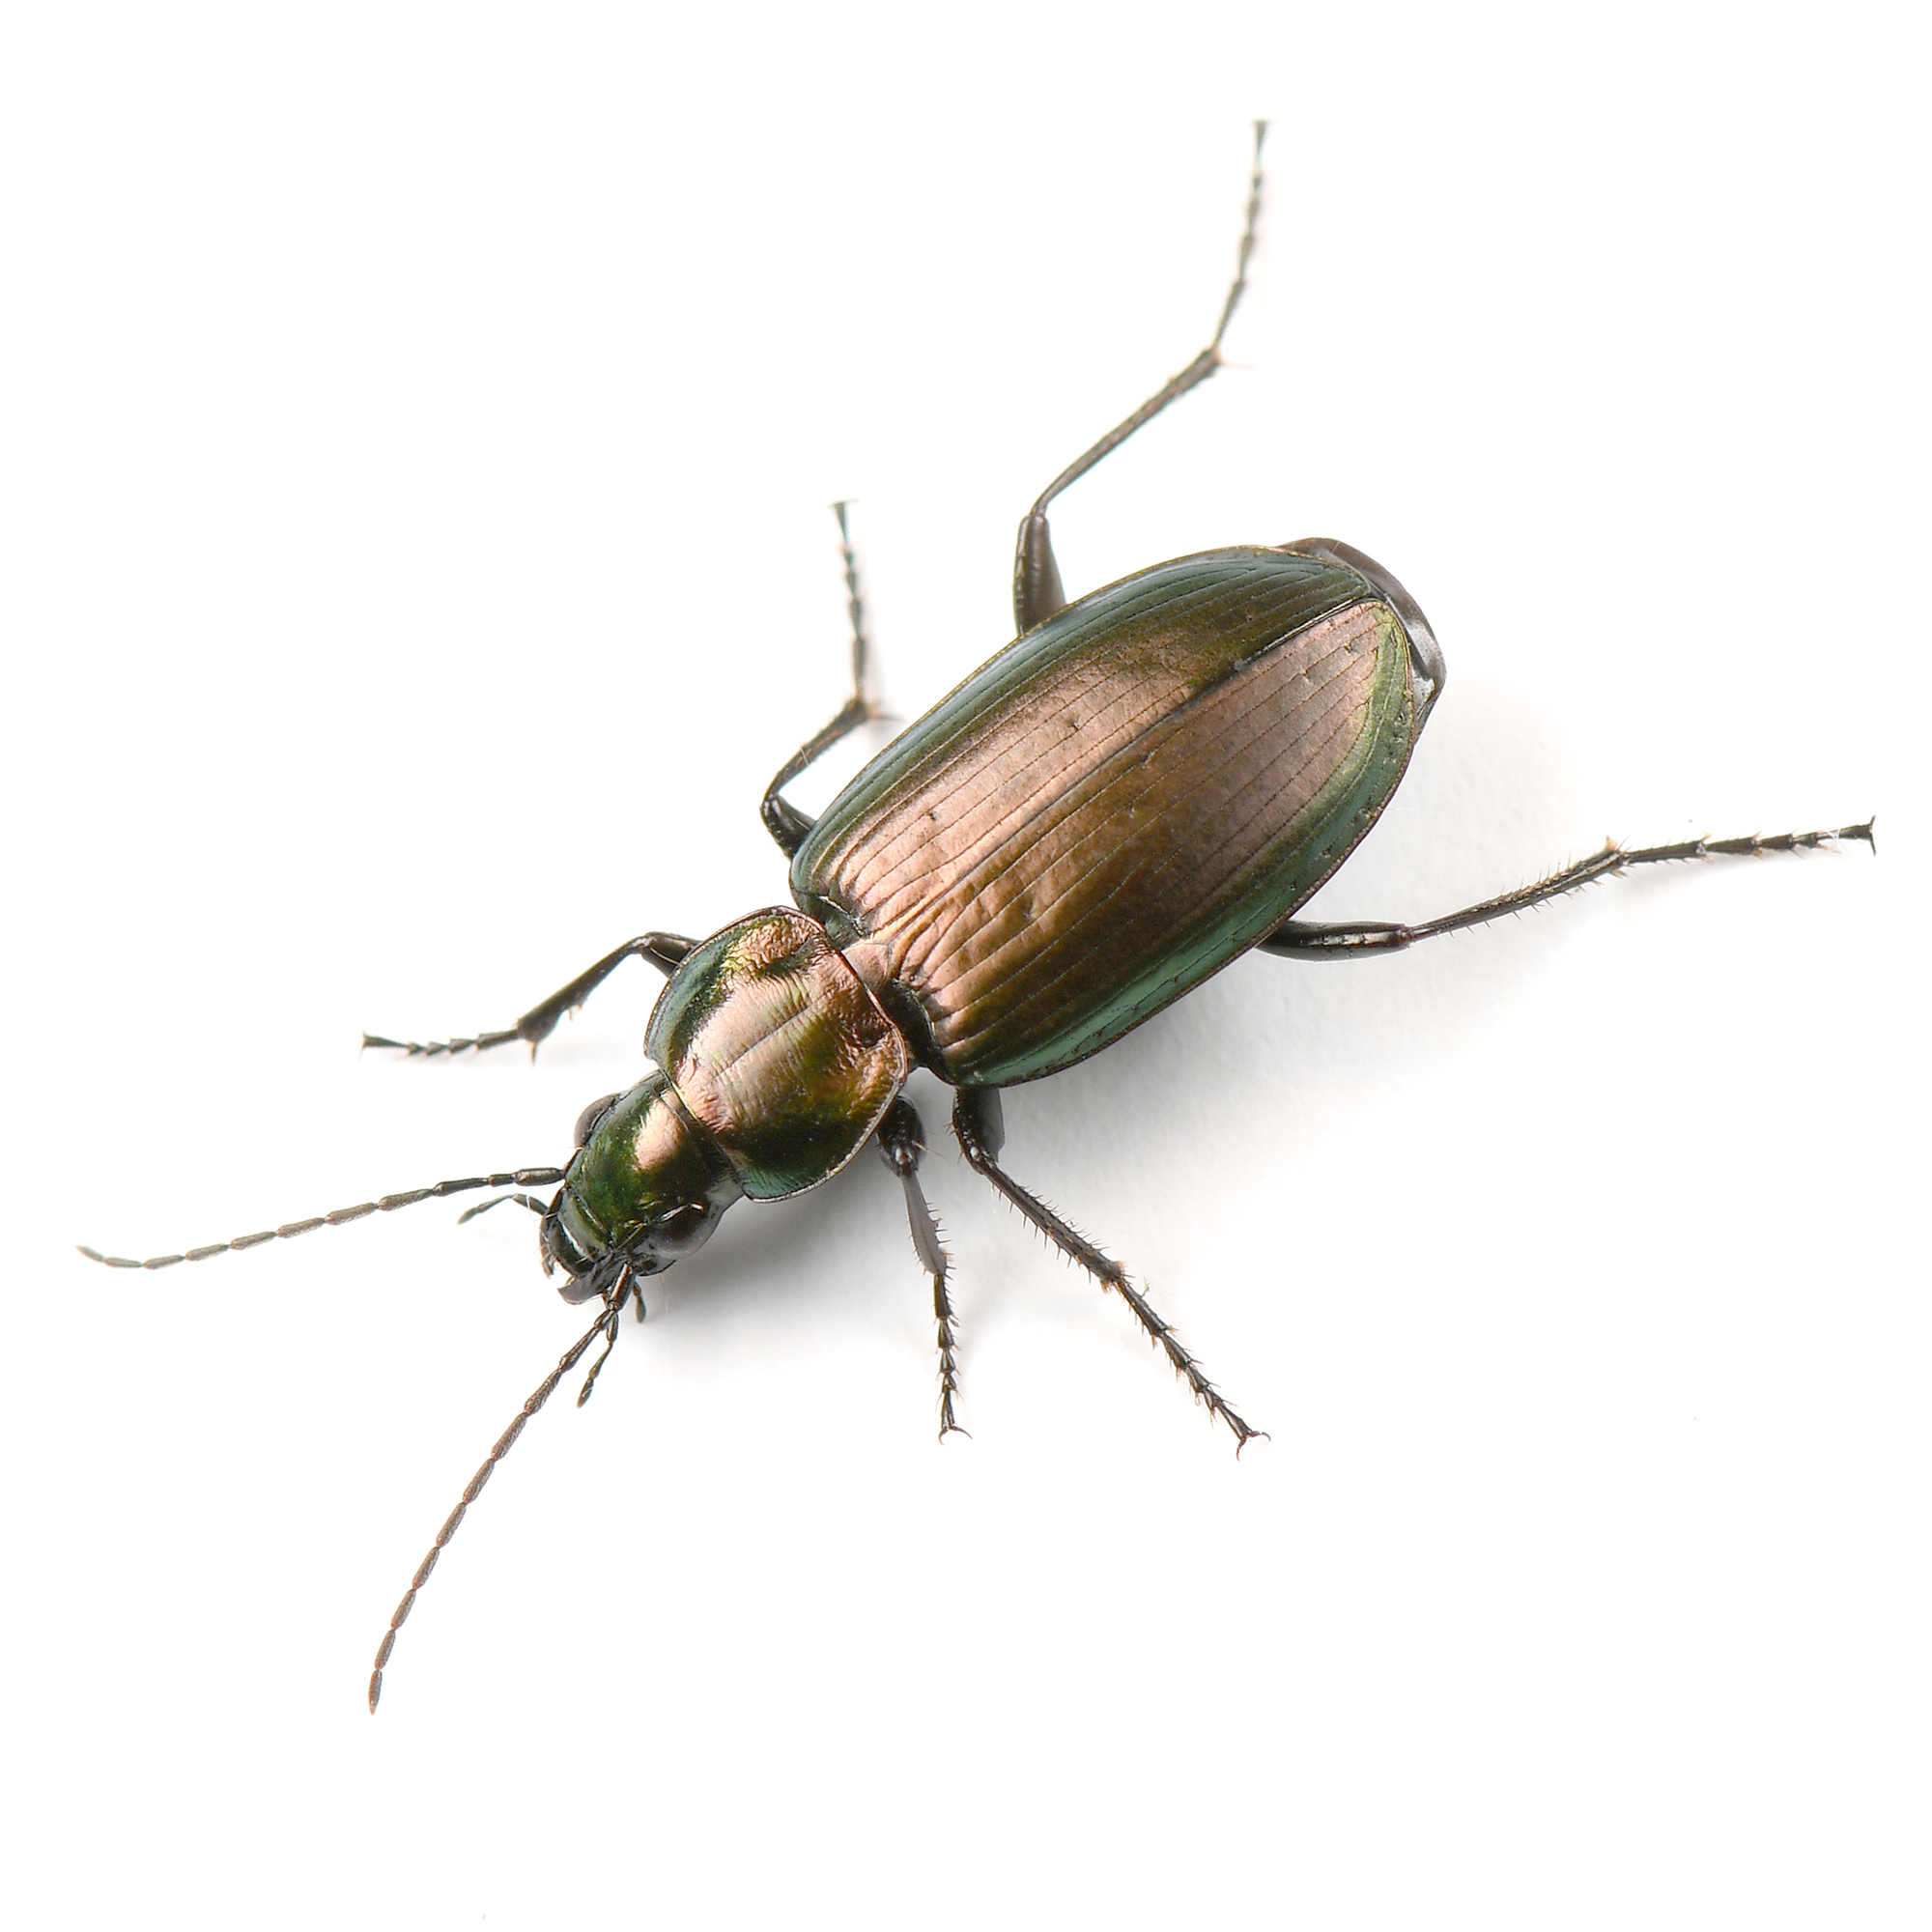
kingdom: Animalia
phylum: Arthropoda
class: Insecta
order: Coleoptera
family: Carabidae
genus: Agonum
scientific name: Agonum suturale
